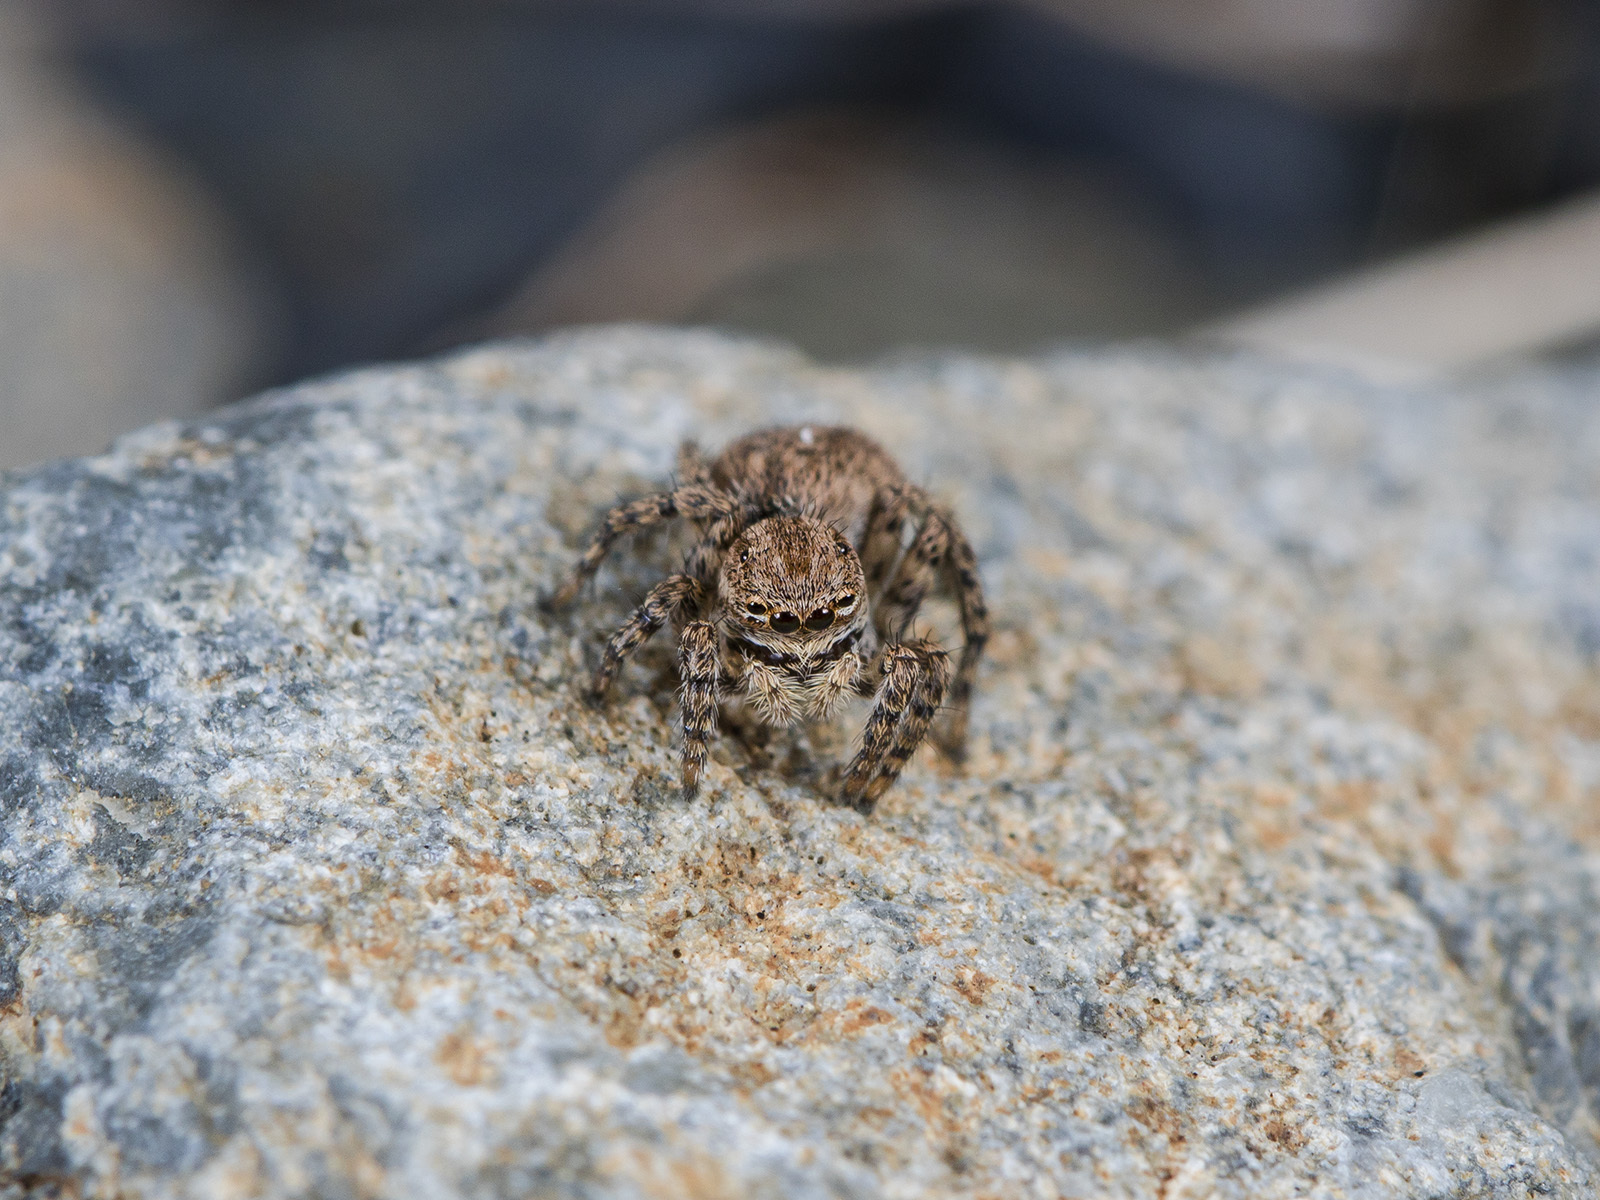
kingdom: Animalia
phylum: Arthropoda
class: Arachnida
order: Araneae
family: Salticidae
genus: Aelurillus
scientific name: Aelurillus v-insignitus
